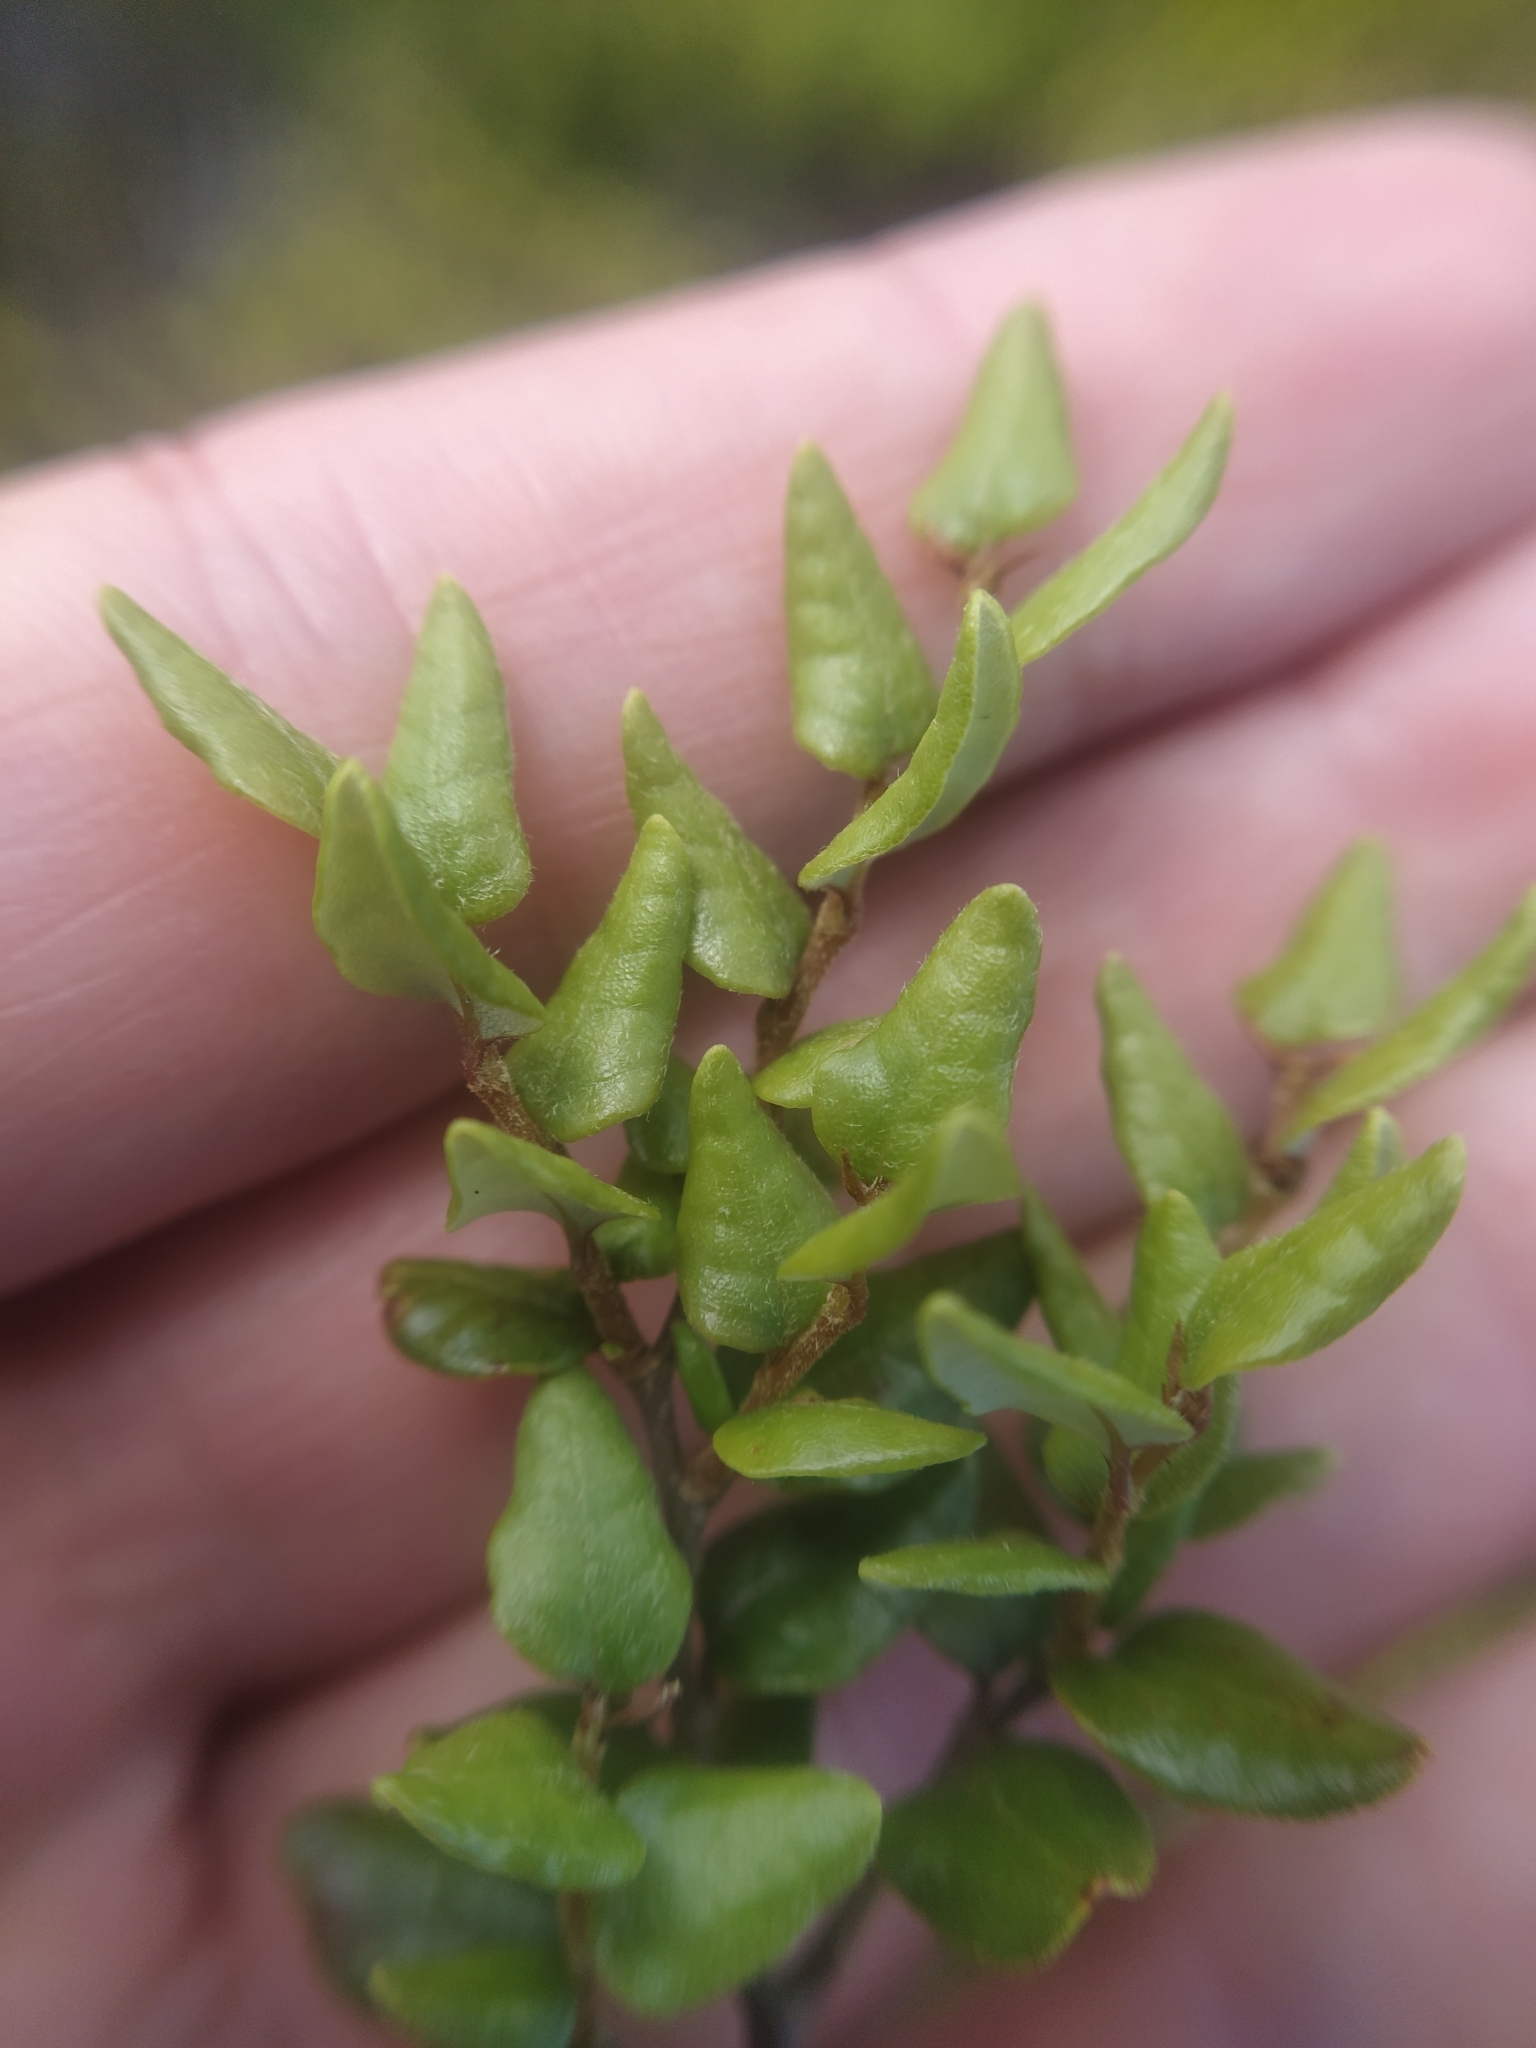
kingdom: Plantae
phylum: Tracheophyta
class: Magnoliopsida
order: Fagales
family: Nothofagaceae
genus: Nothofagus
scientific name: Nothofagus cliffortioides
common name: Mountain beech
